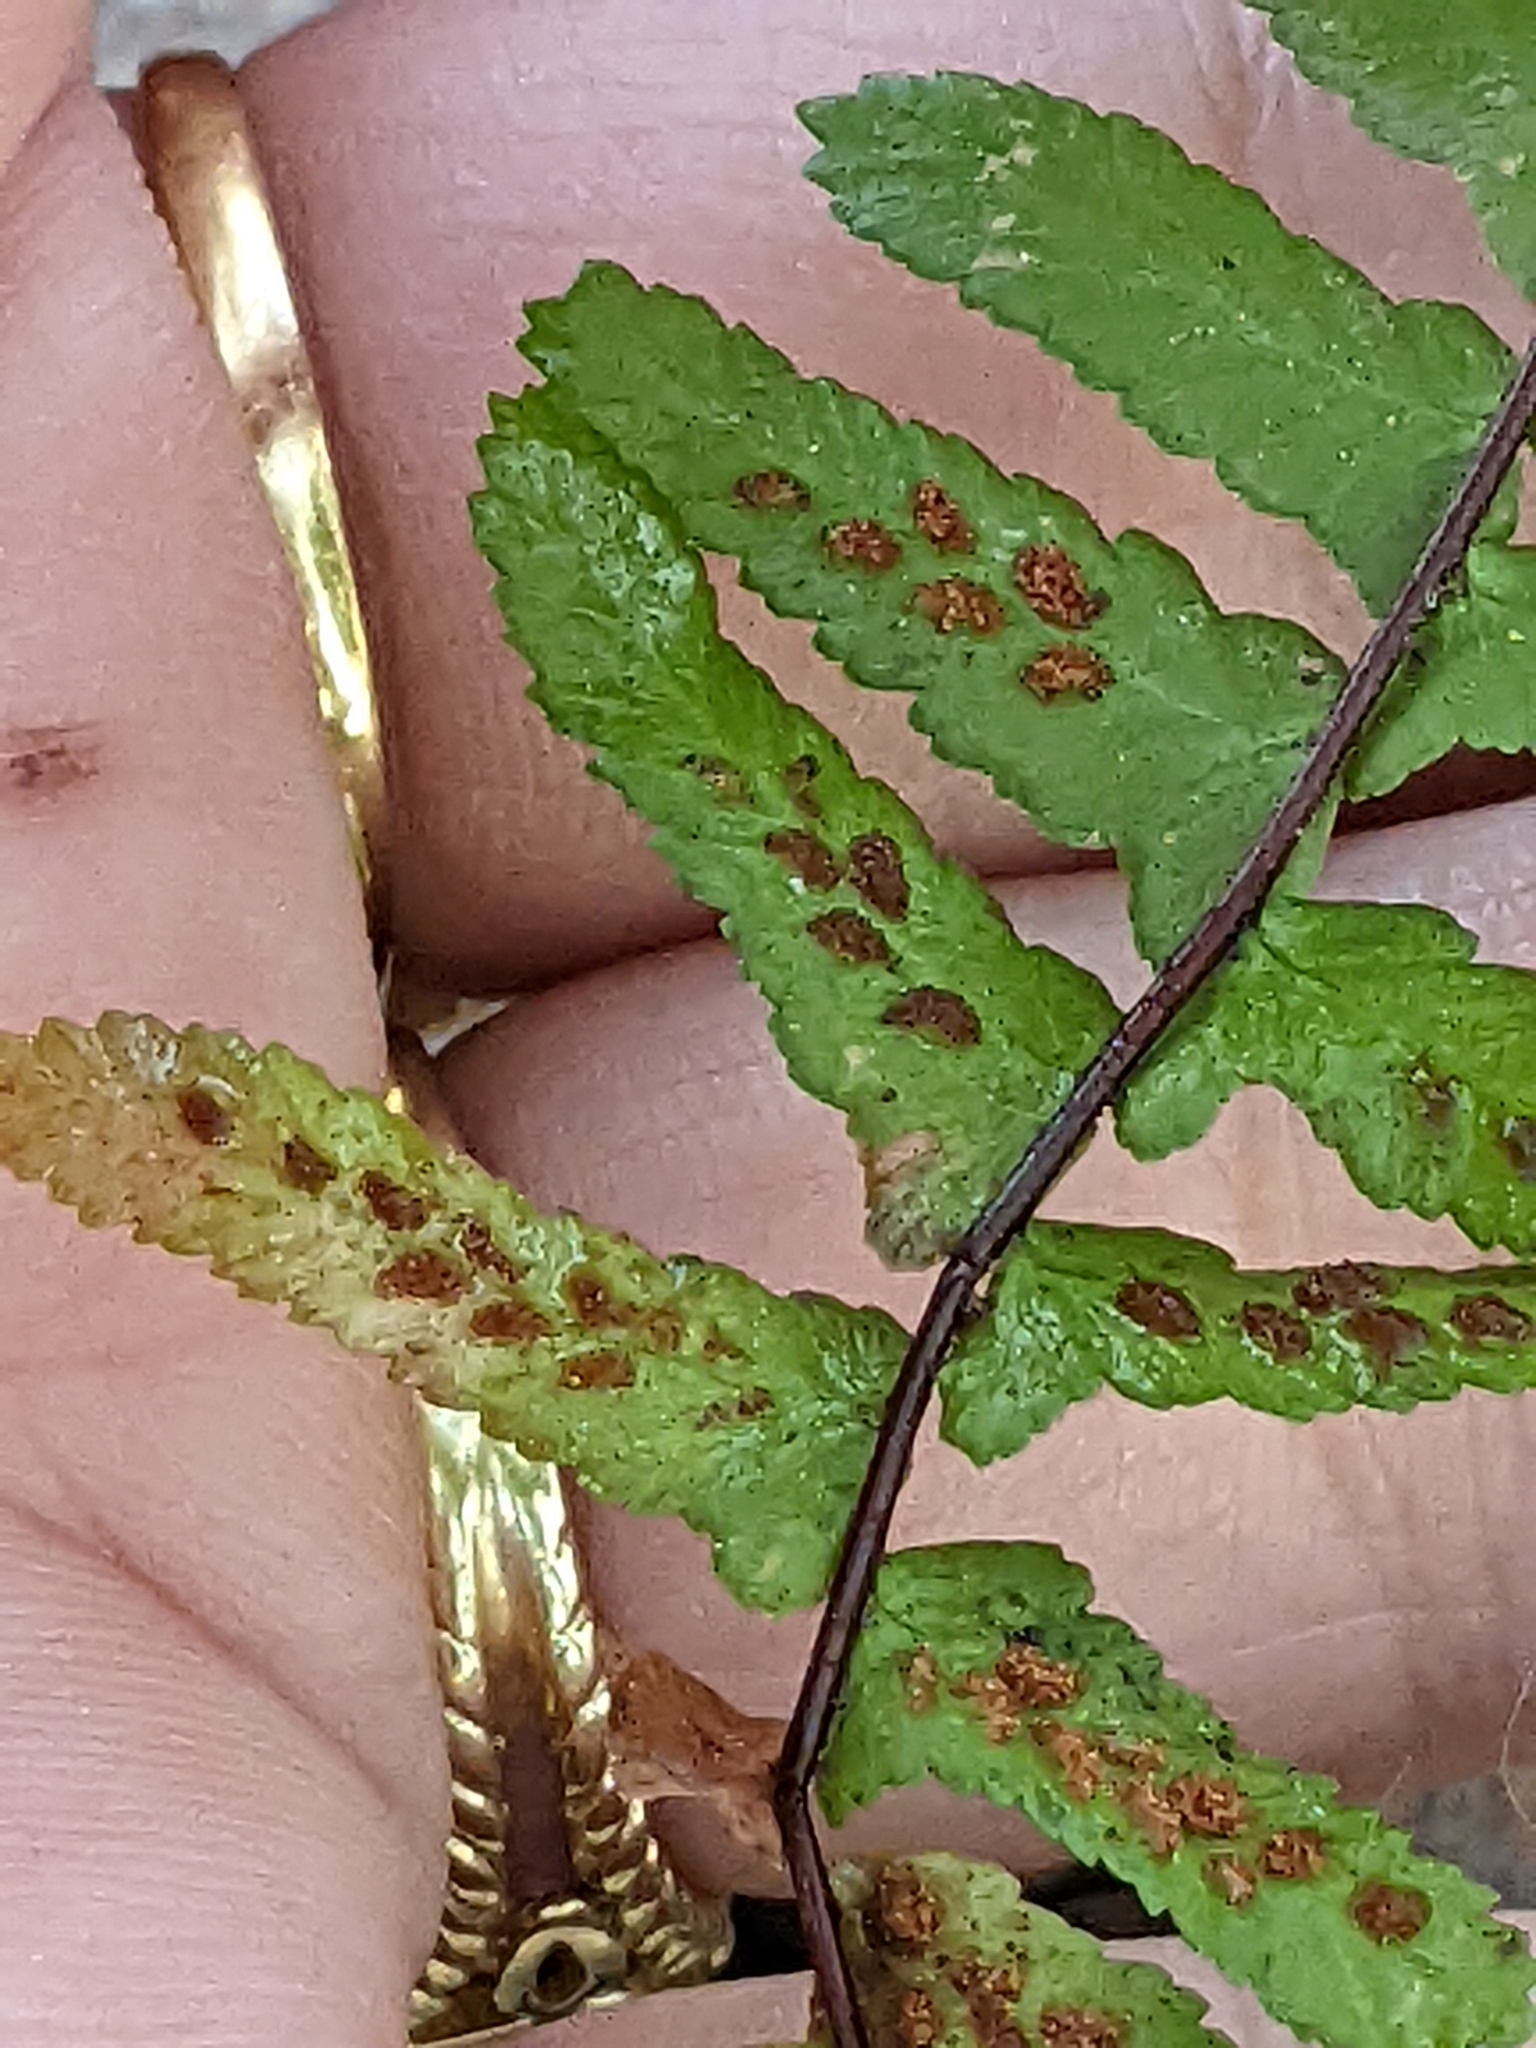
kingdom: Plantae
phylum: Tracheophyta
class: Polypodiopsida
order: Polypodiales
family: Aspleniaceae
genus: Asplenium
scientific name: Asplenium platyneuron
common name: Ebony spleenwort
